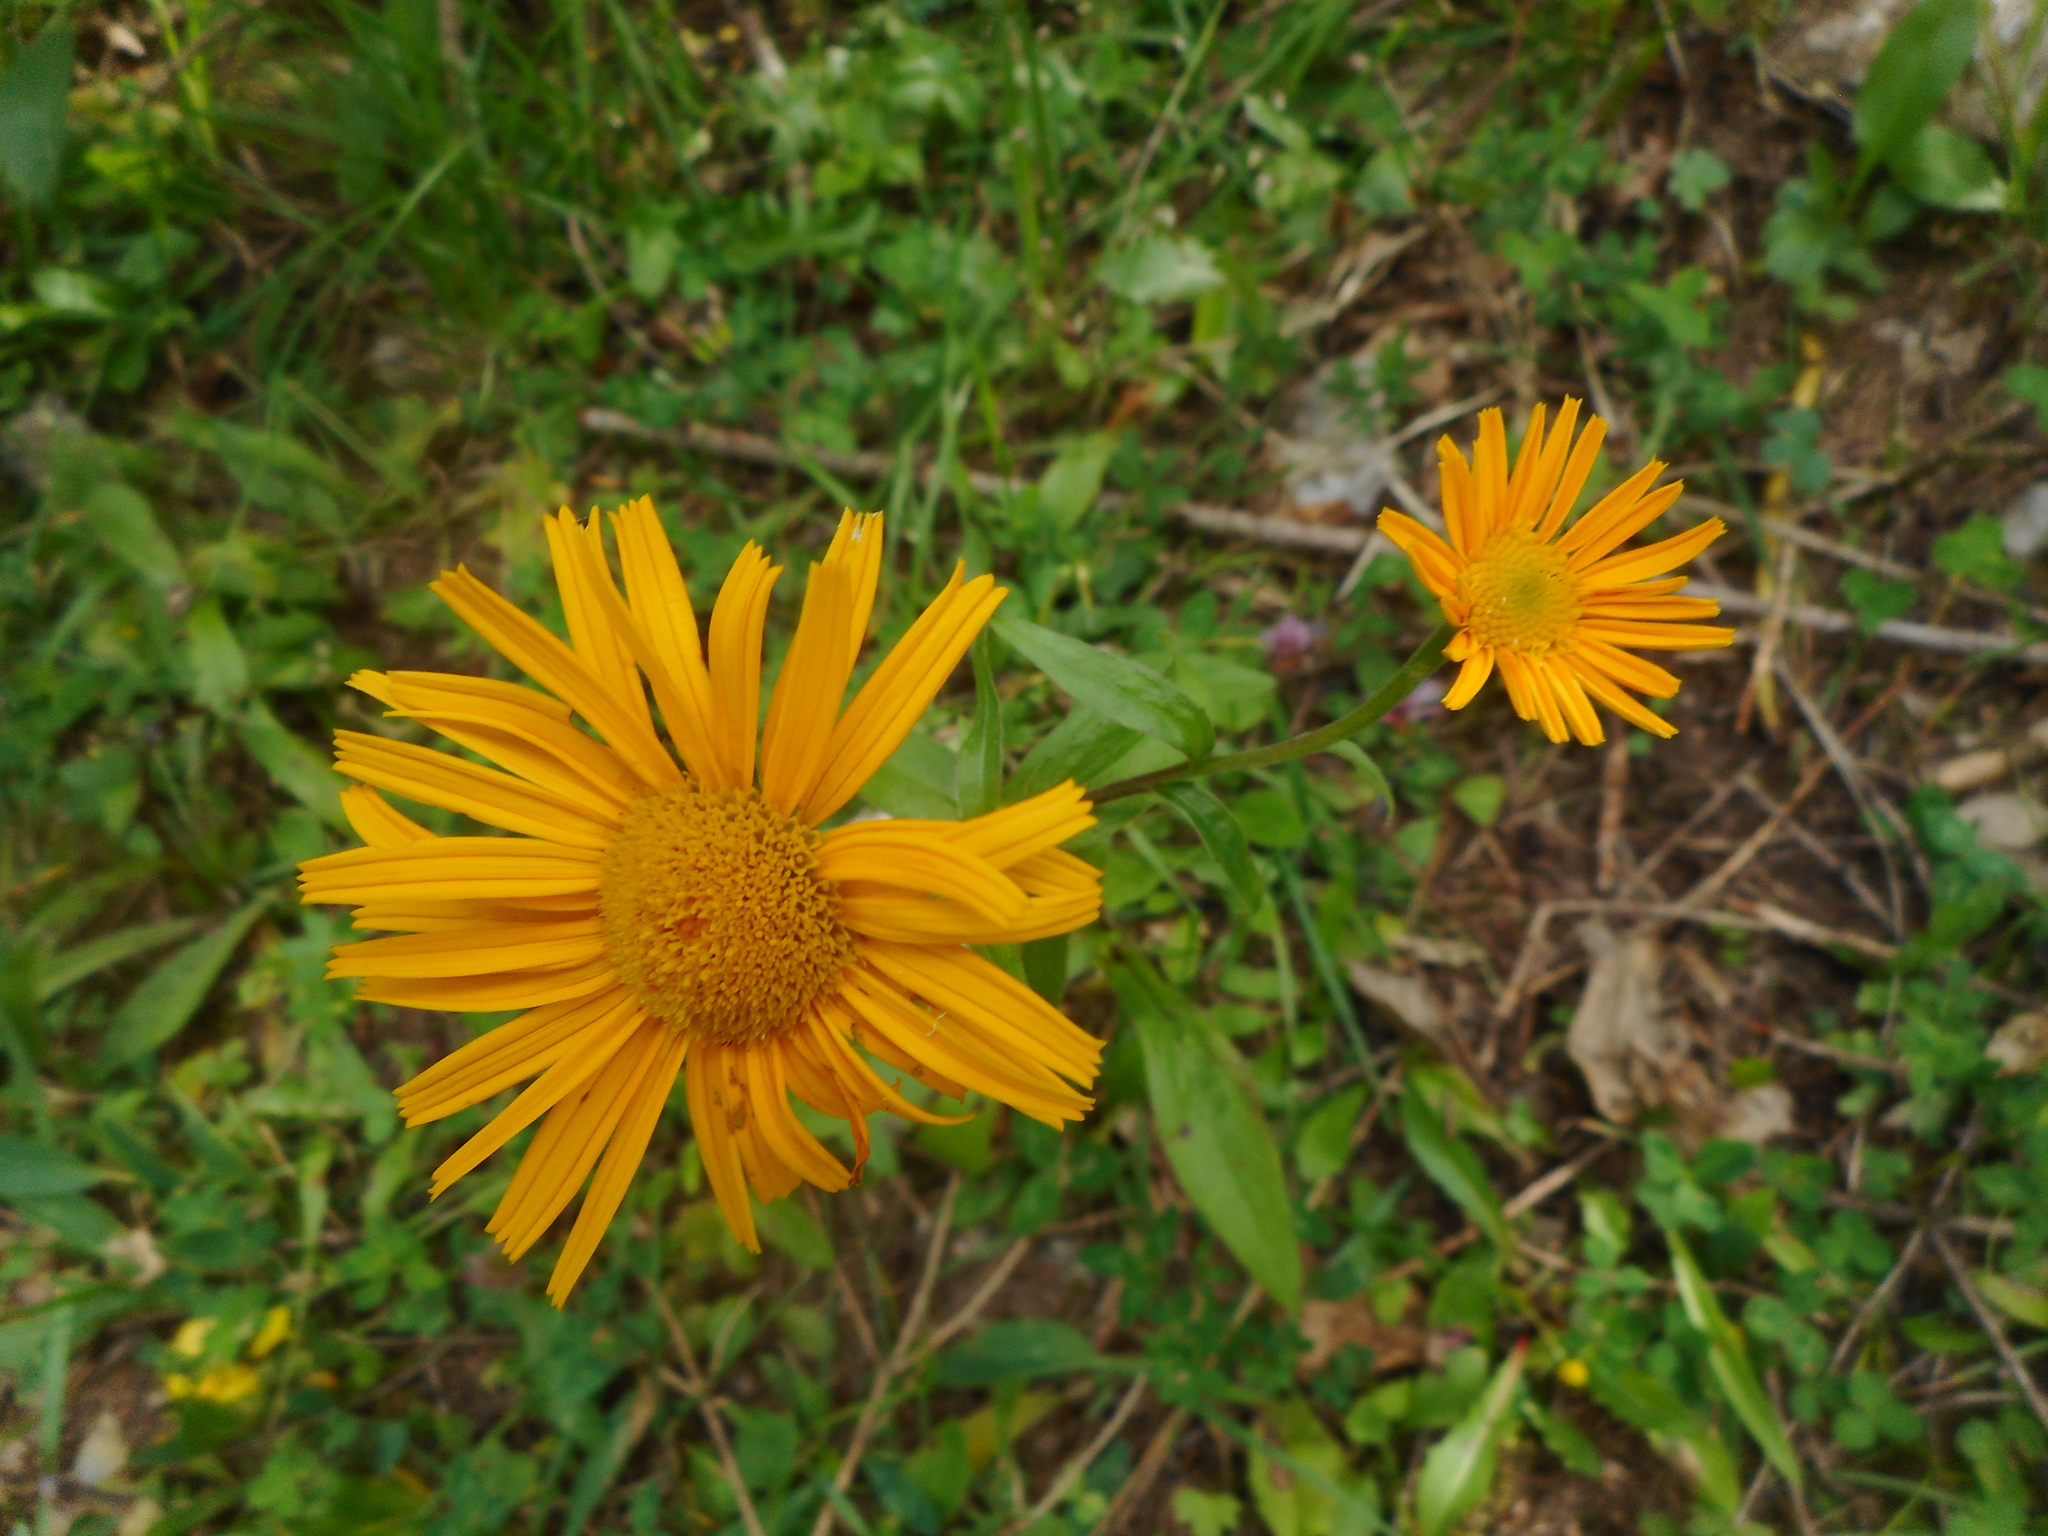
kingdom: Plantae
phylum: Tracheophyta
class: Magnoliopsida
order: Asterales
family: Asteraceae
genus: Buphthalmum
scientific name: Buphthalmum salicifolium
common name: Willow-leaved yellow-oxeye
